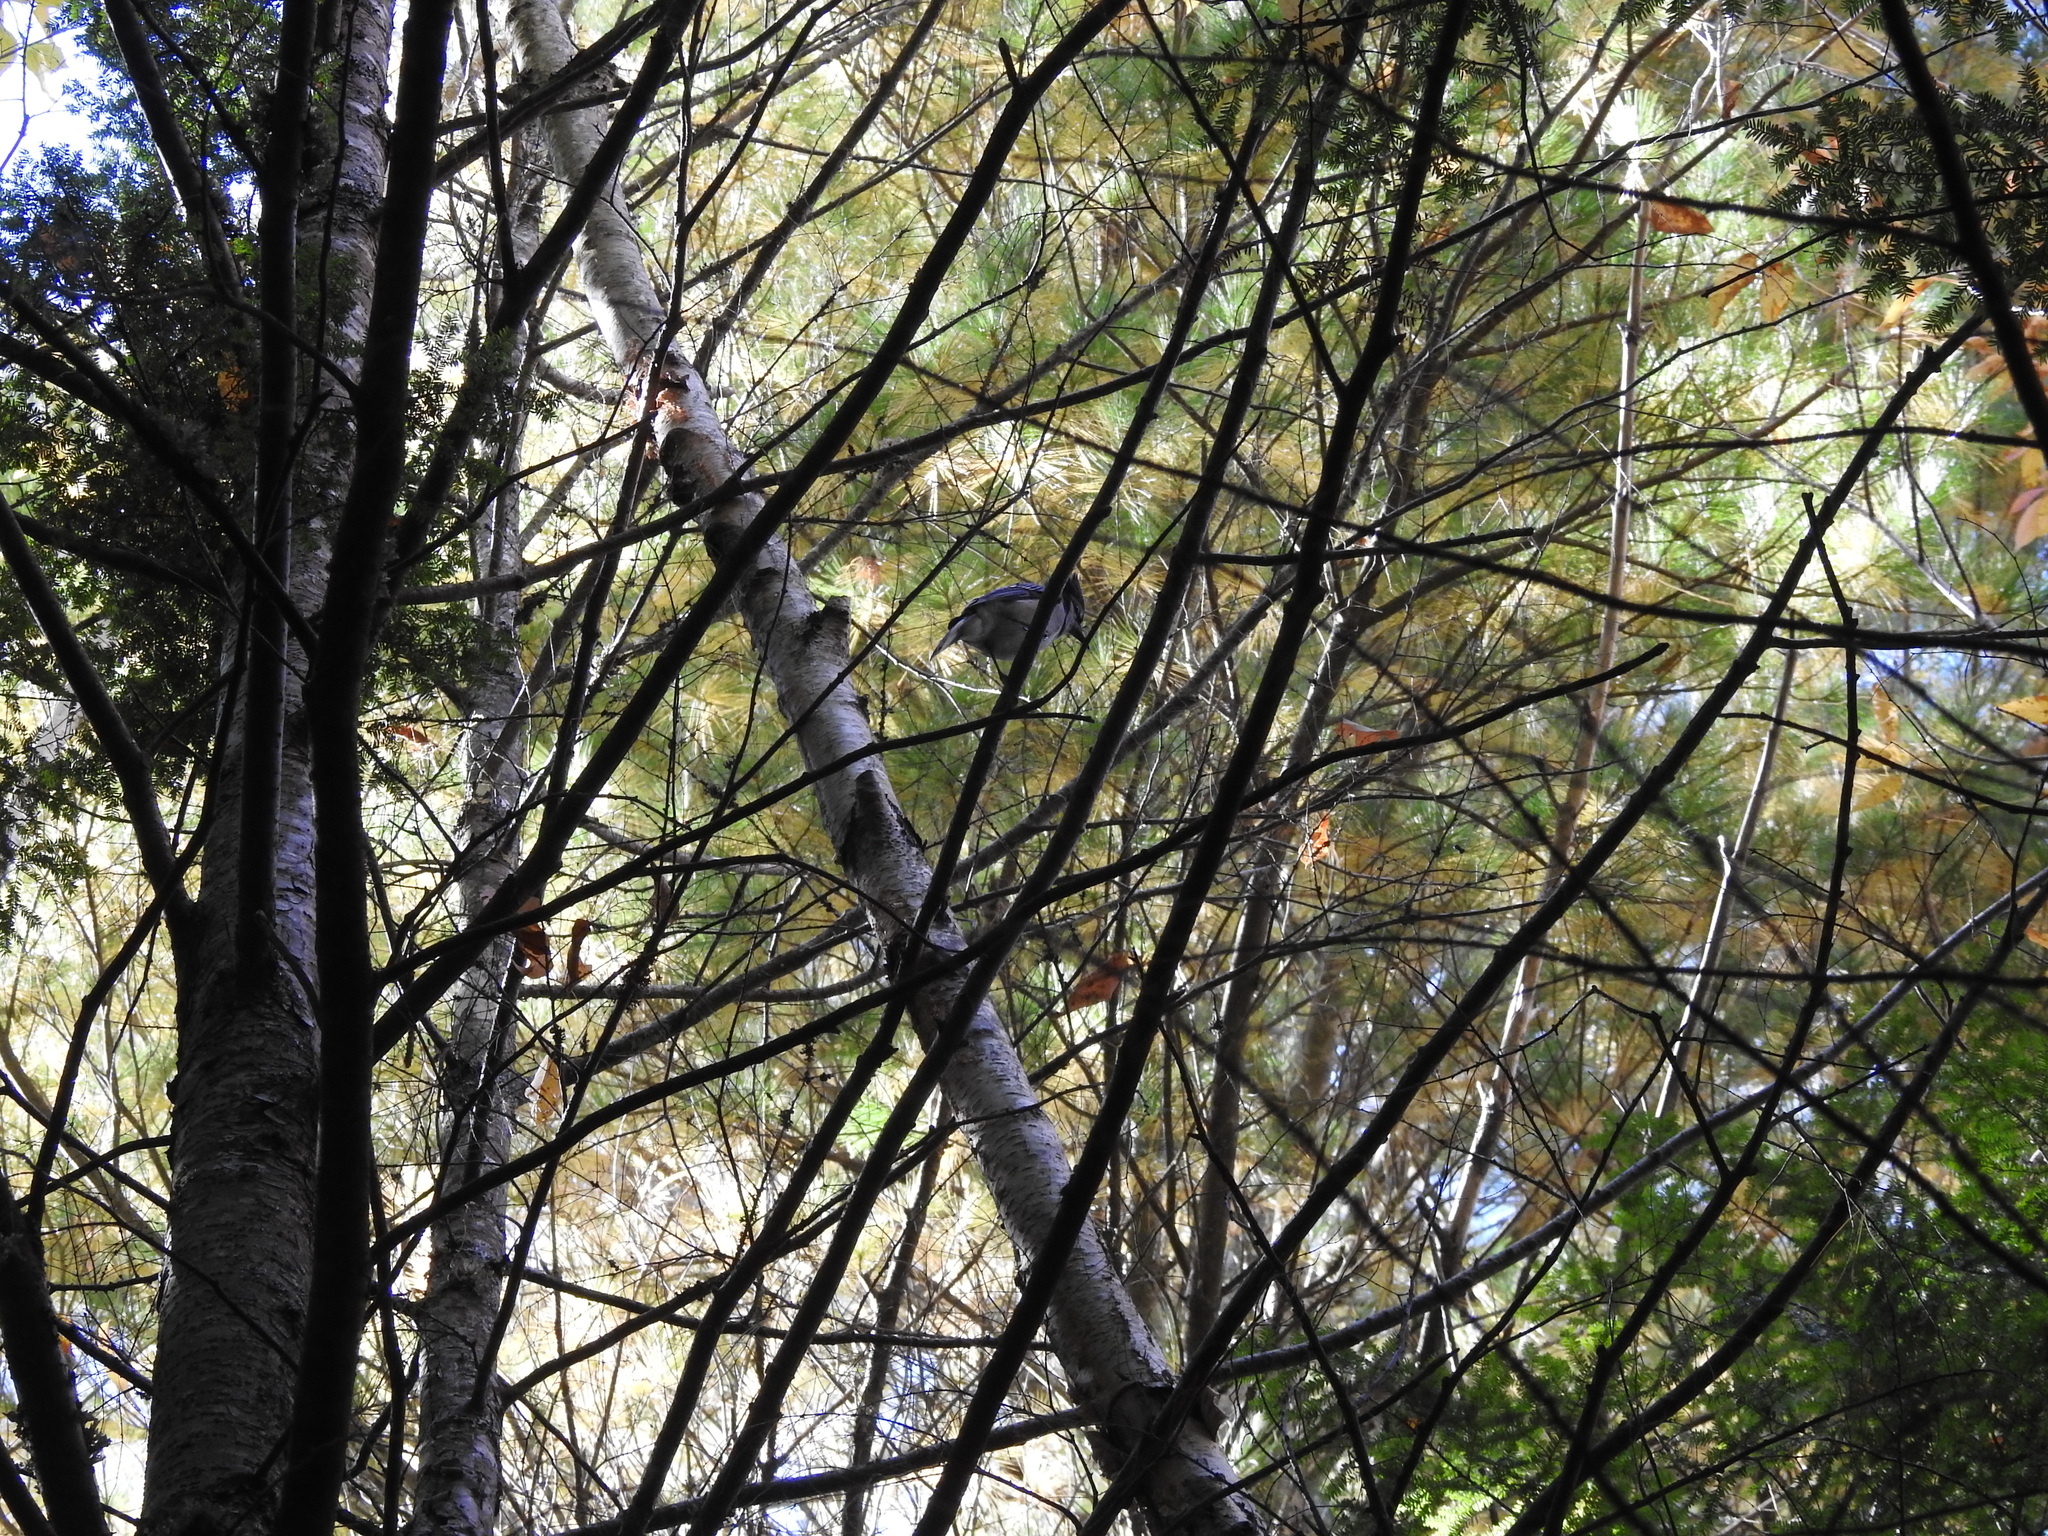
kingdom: Animalia
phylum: Chordata
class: Aves
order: Passeriformes
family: Corvidae
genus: Cyanocitta
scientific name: Cyanocitta cristata
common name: Blue jay
